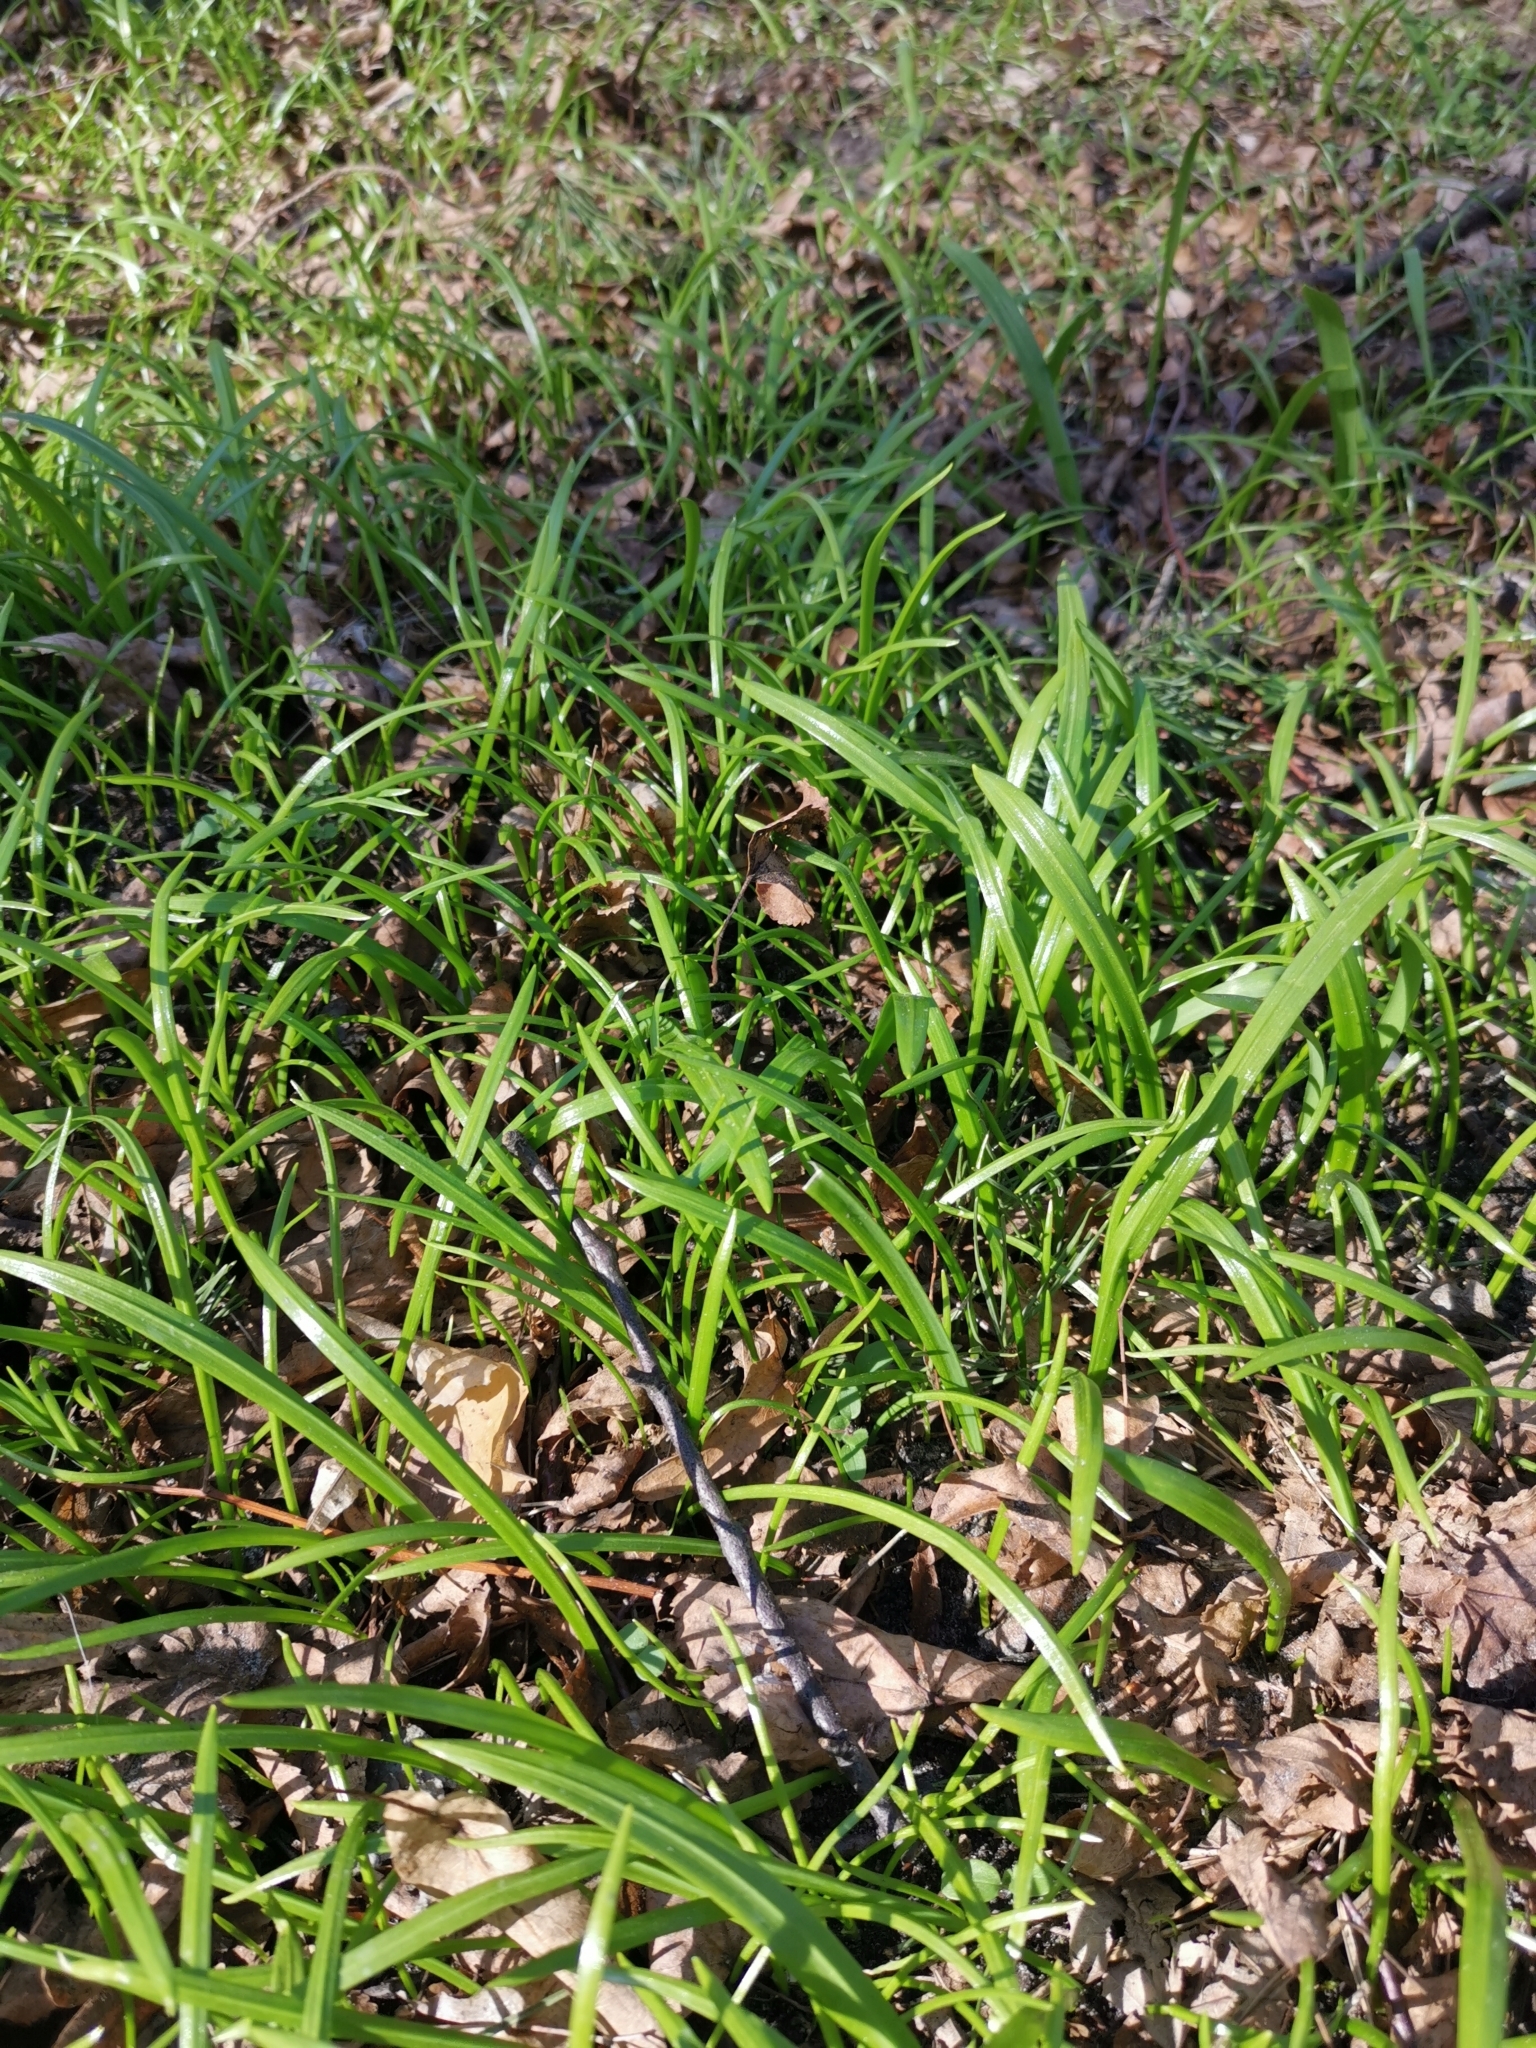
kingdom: Plantae
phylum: Tracheophyta
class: Liliopsida
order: Asparagales
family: Amaryllidaceae
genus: Allium
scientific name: Allium paradoxum
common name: Few-flowered garlic
